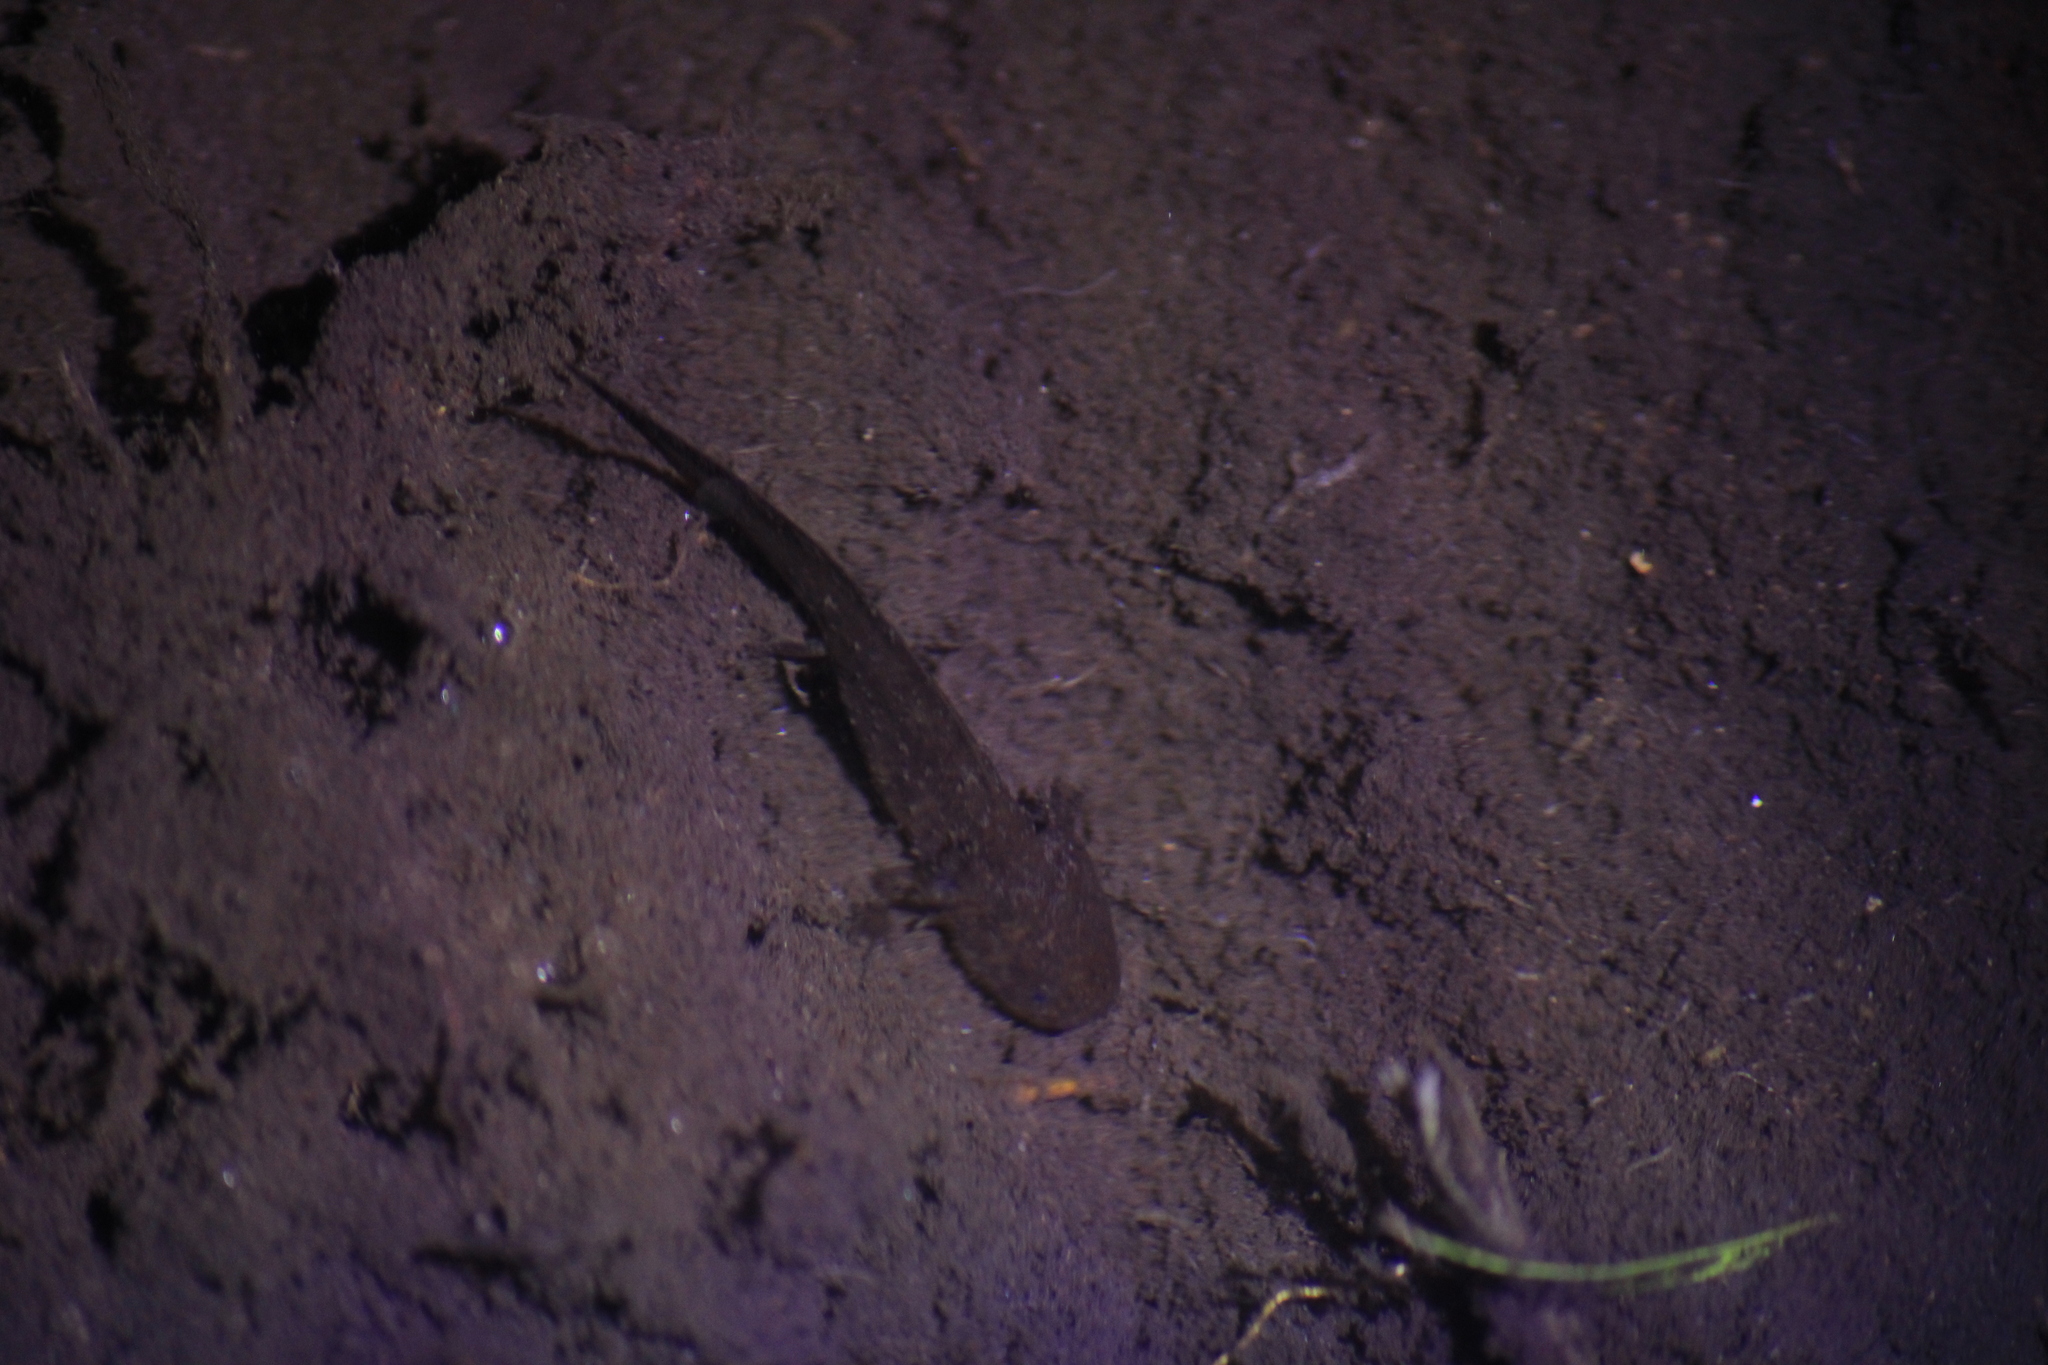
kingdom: Animalia
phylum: Chordata
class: Amphibia
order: Caudata
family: Ambystomatidae
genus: Ambystoma
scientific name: Ambystoma rivulare
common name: Michoacan stream salamander
